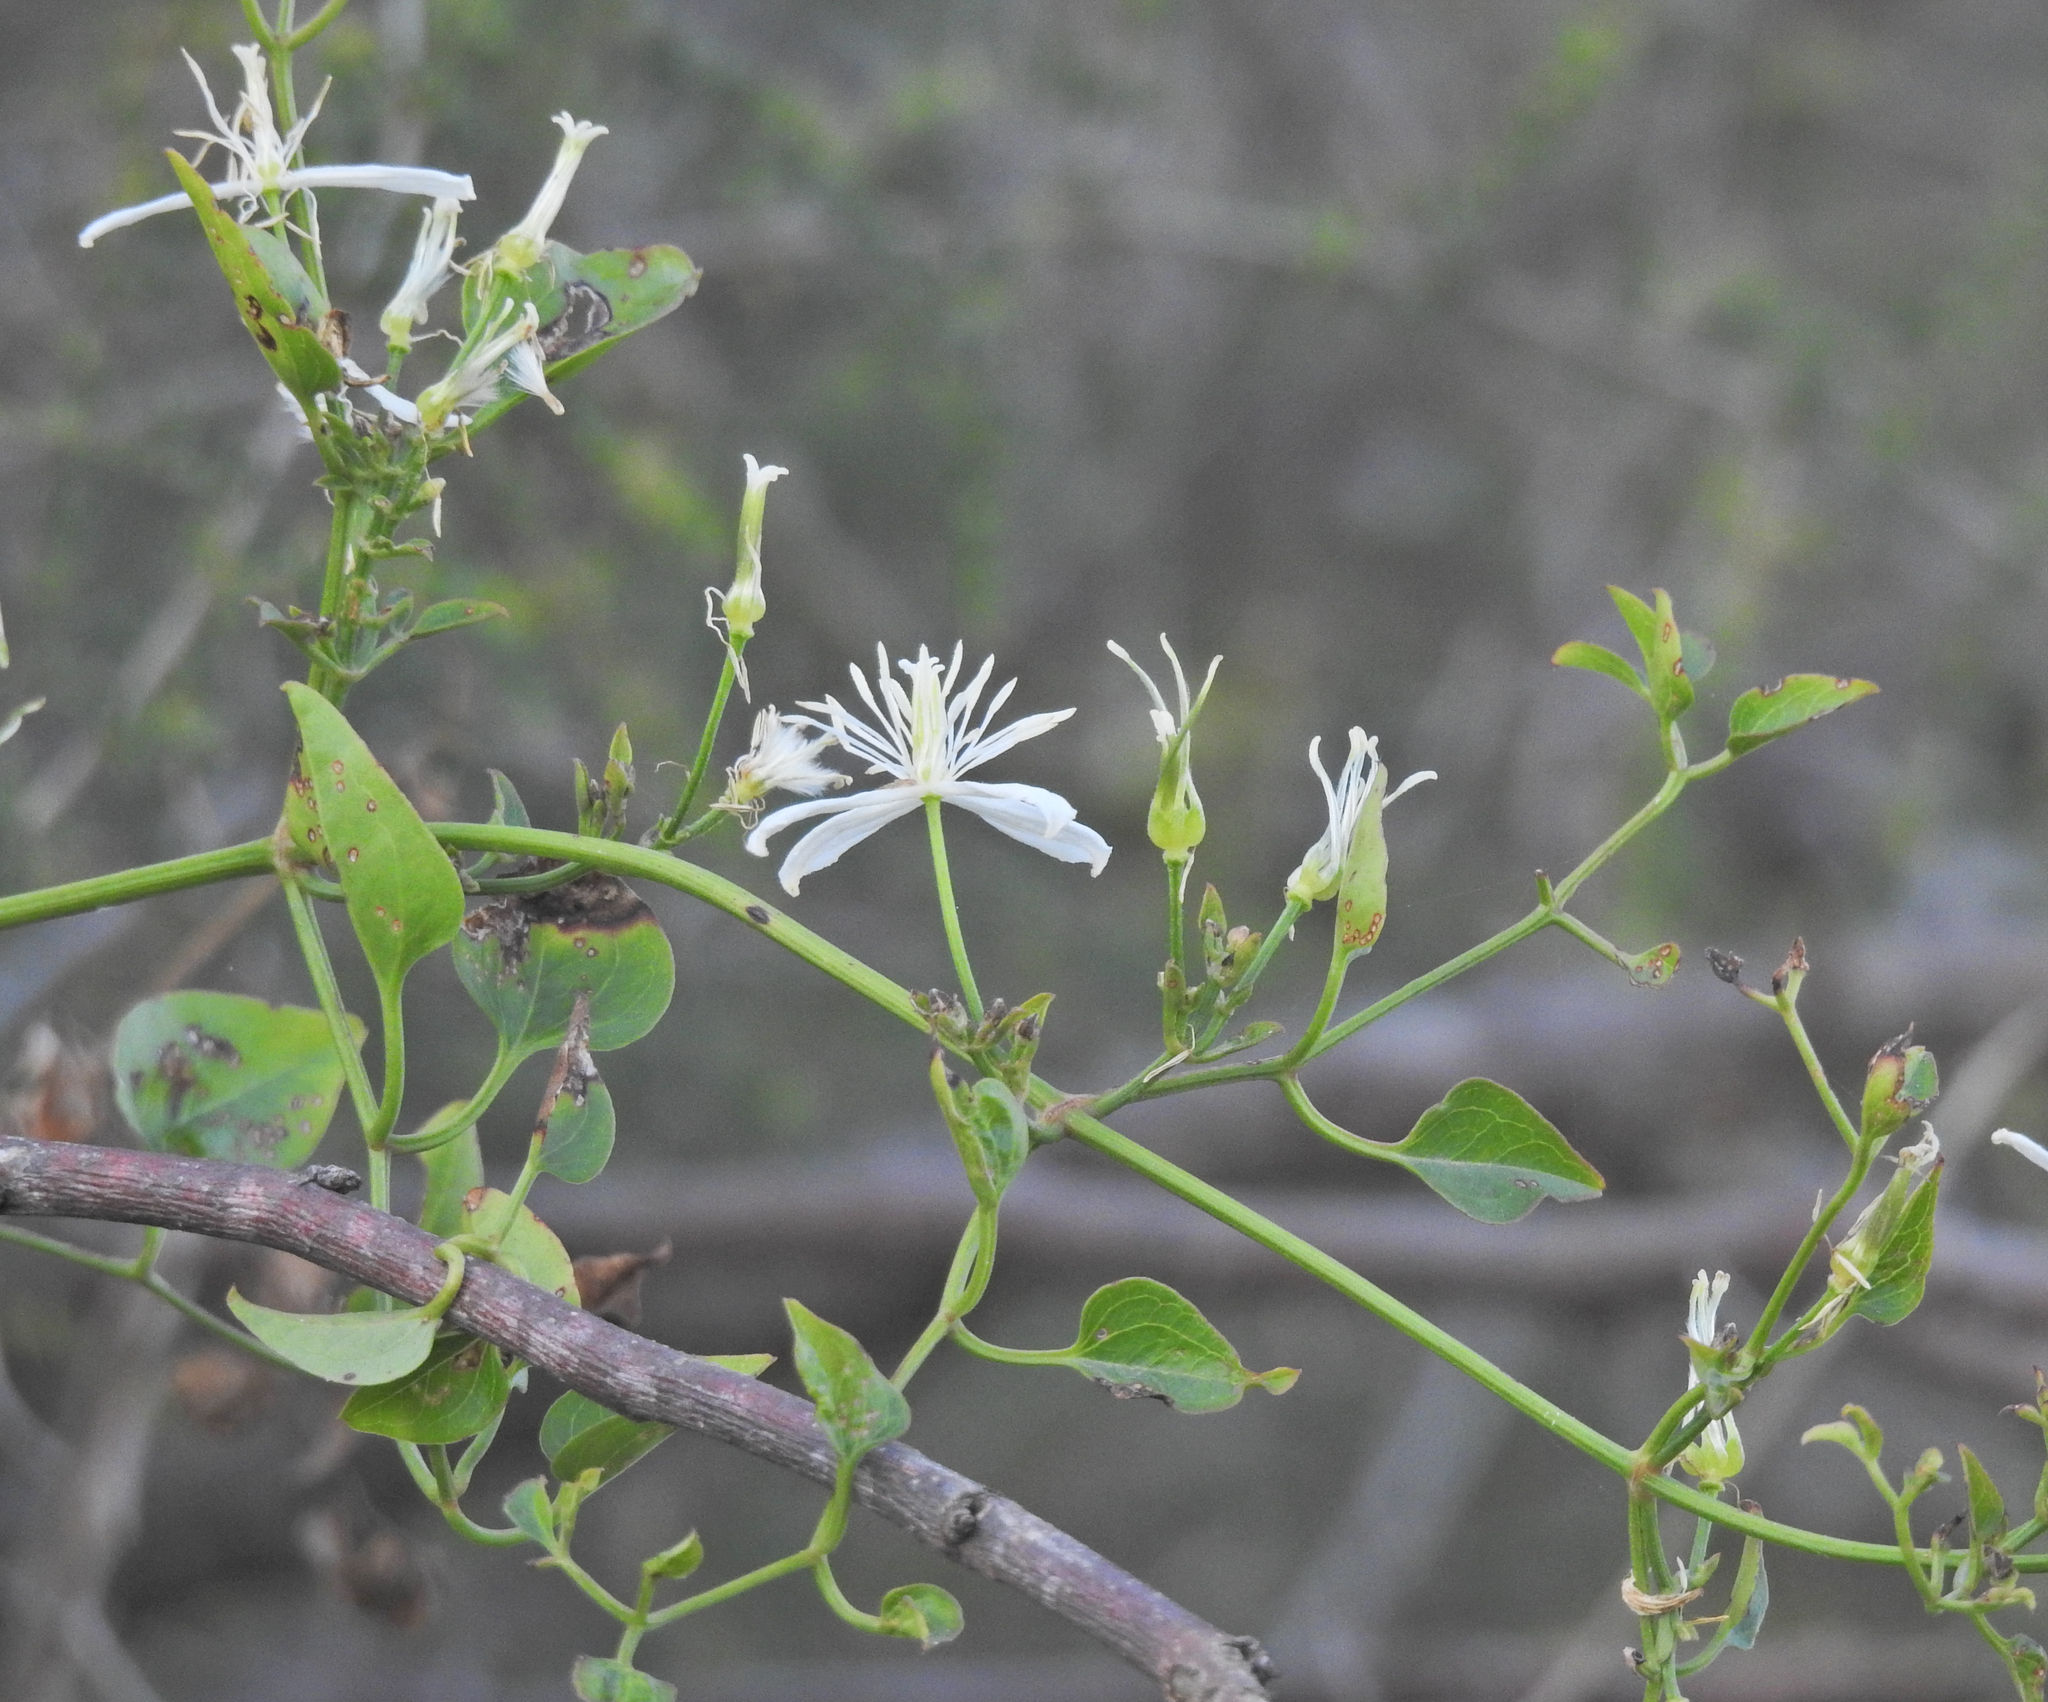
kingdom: Plantae
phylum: Tracheophyta
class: Magnoliopsida
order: Ranunculales
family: Ranunculaceae
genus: Clematis
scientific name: Clematis flammula
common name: Virgin's-bower
